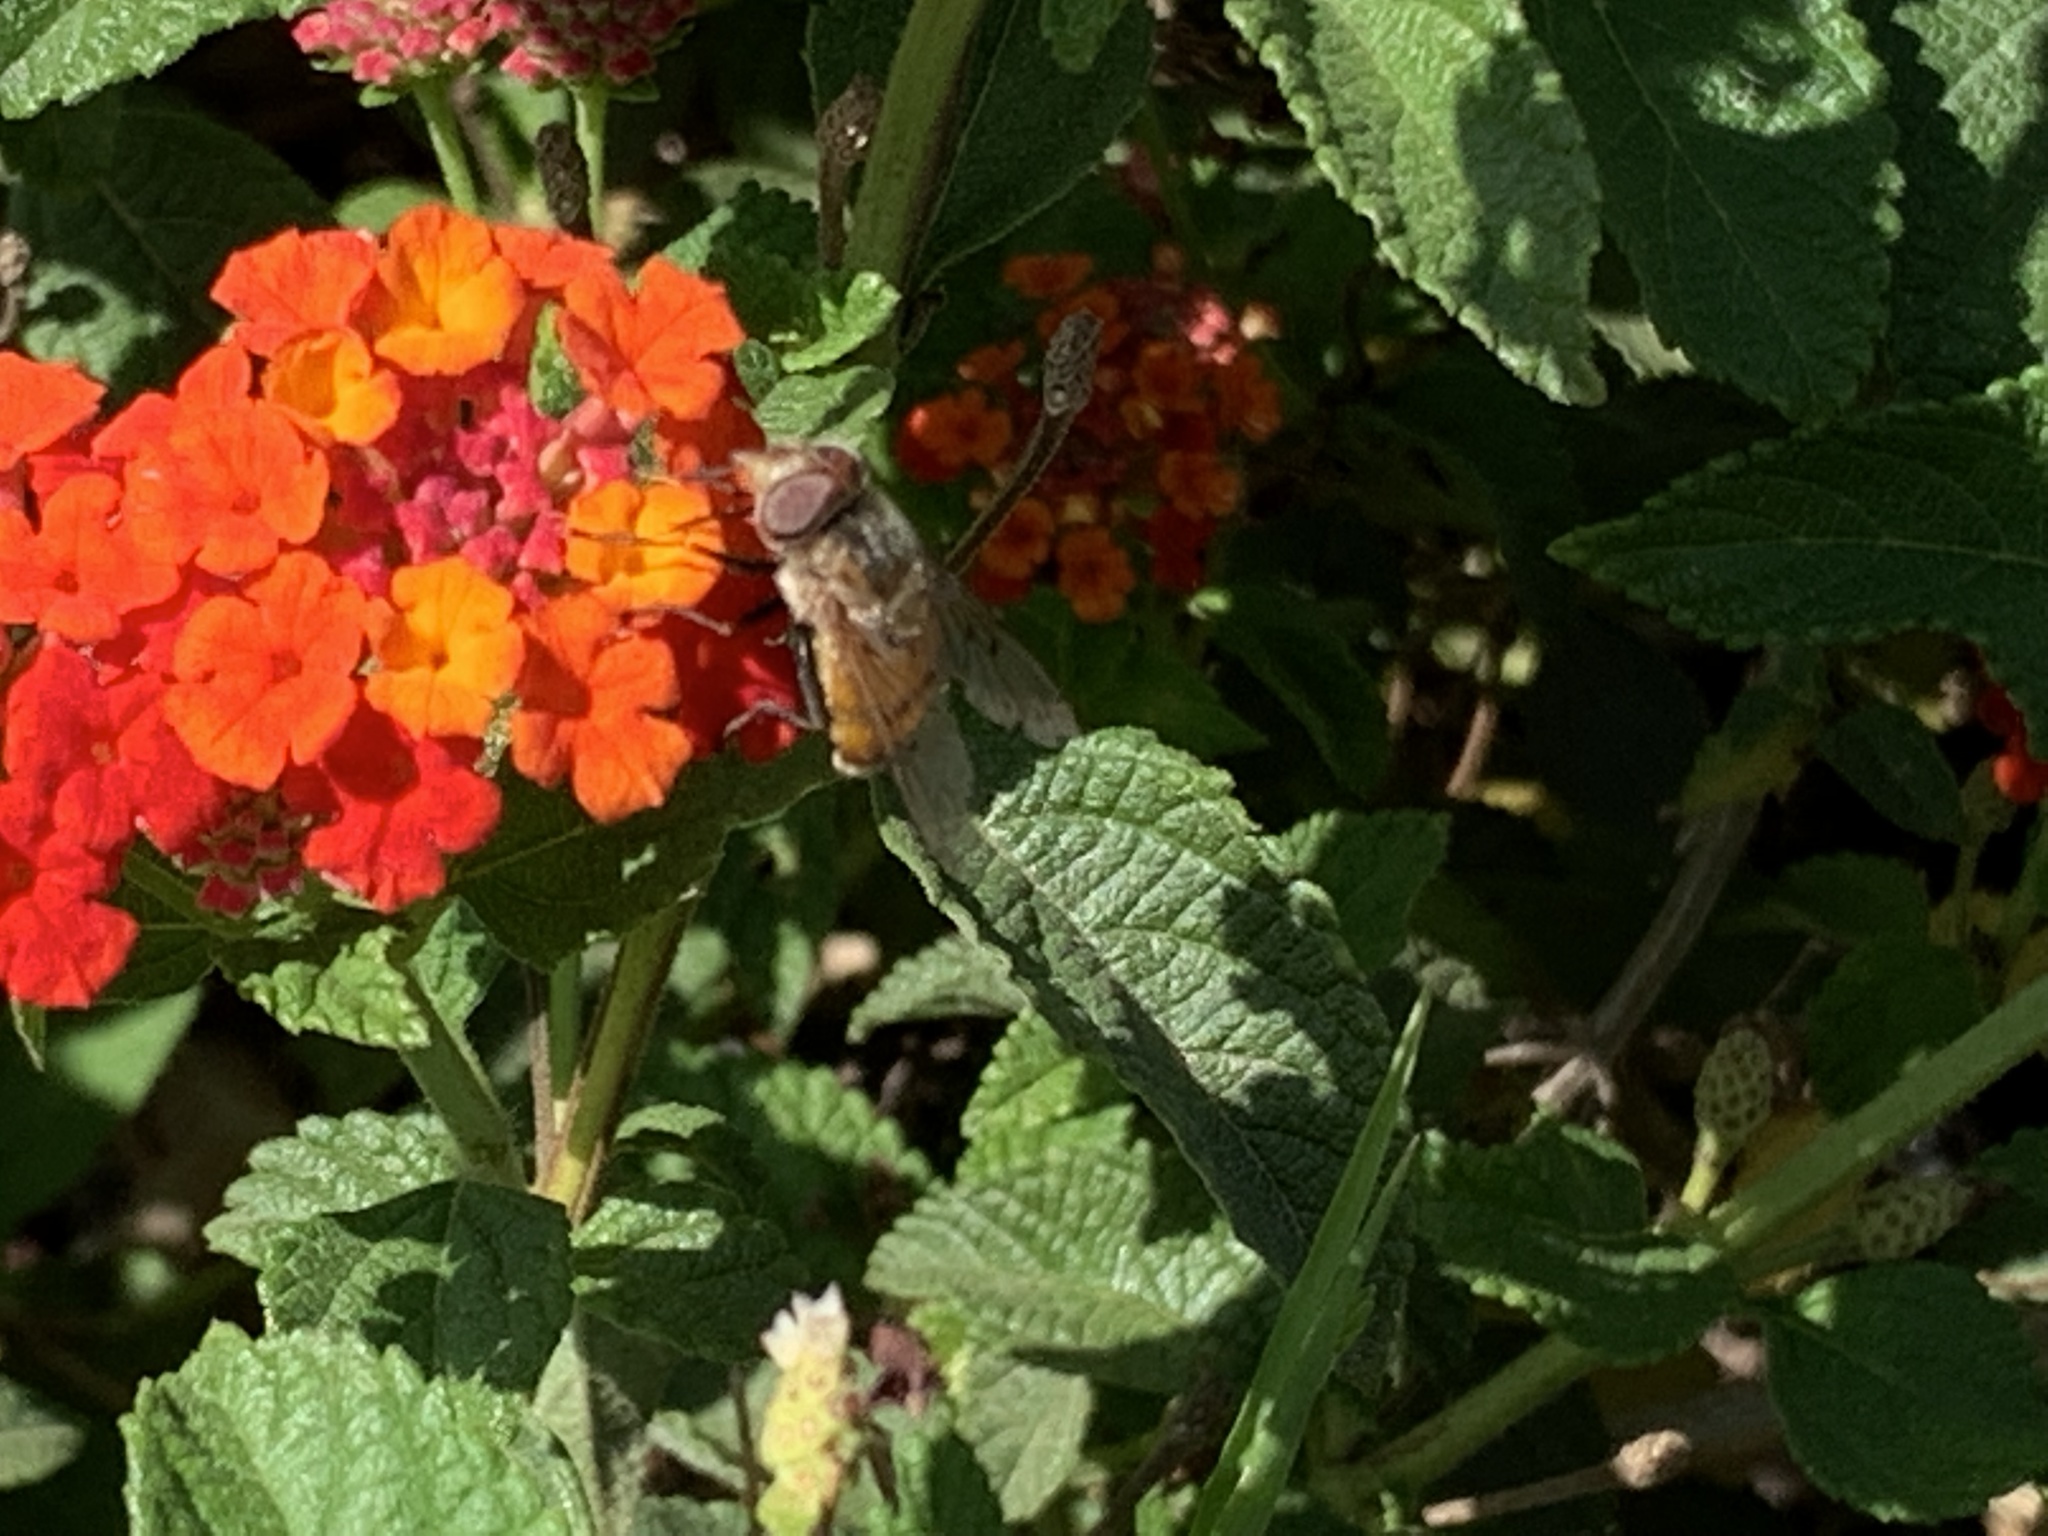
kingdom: Animalia
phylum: Arthropoda
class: Insecta
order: Diptera
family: Syrphidae
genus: Copestylum
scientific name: Copestylum haagii
